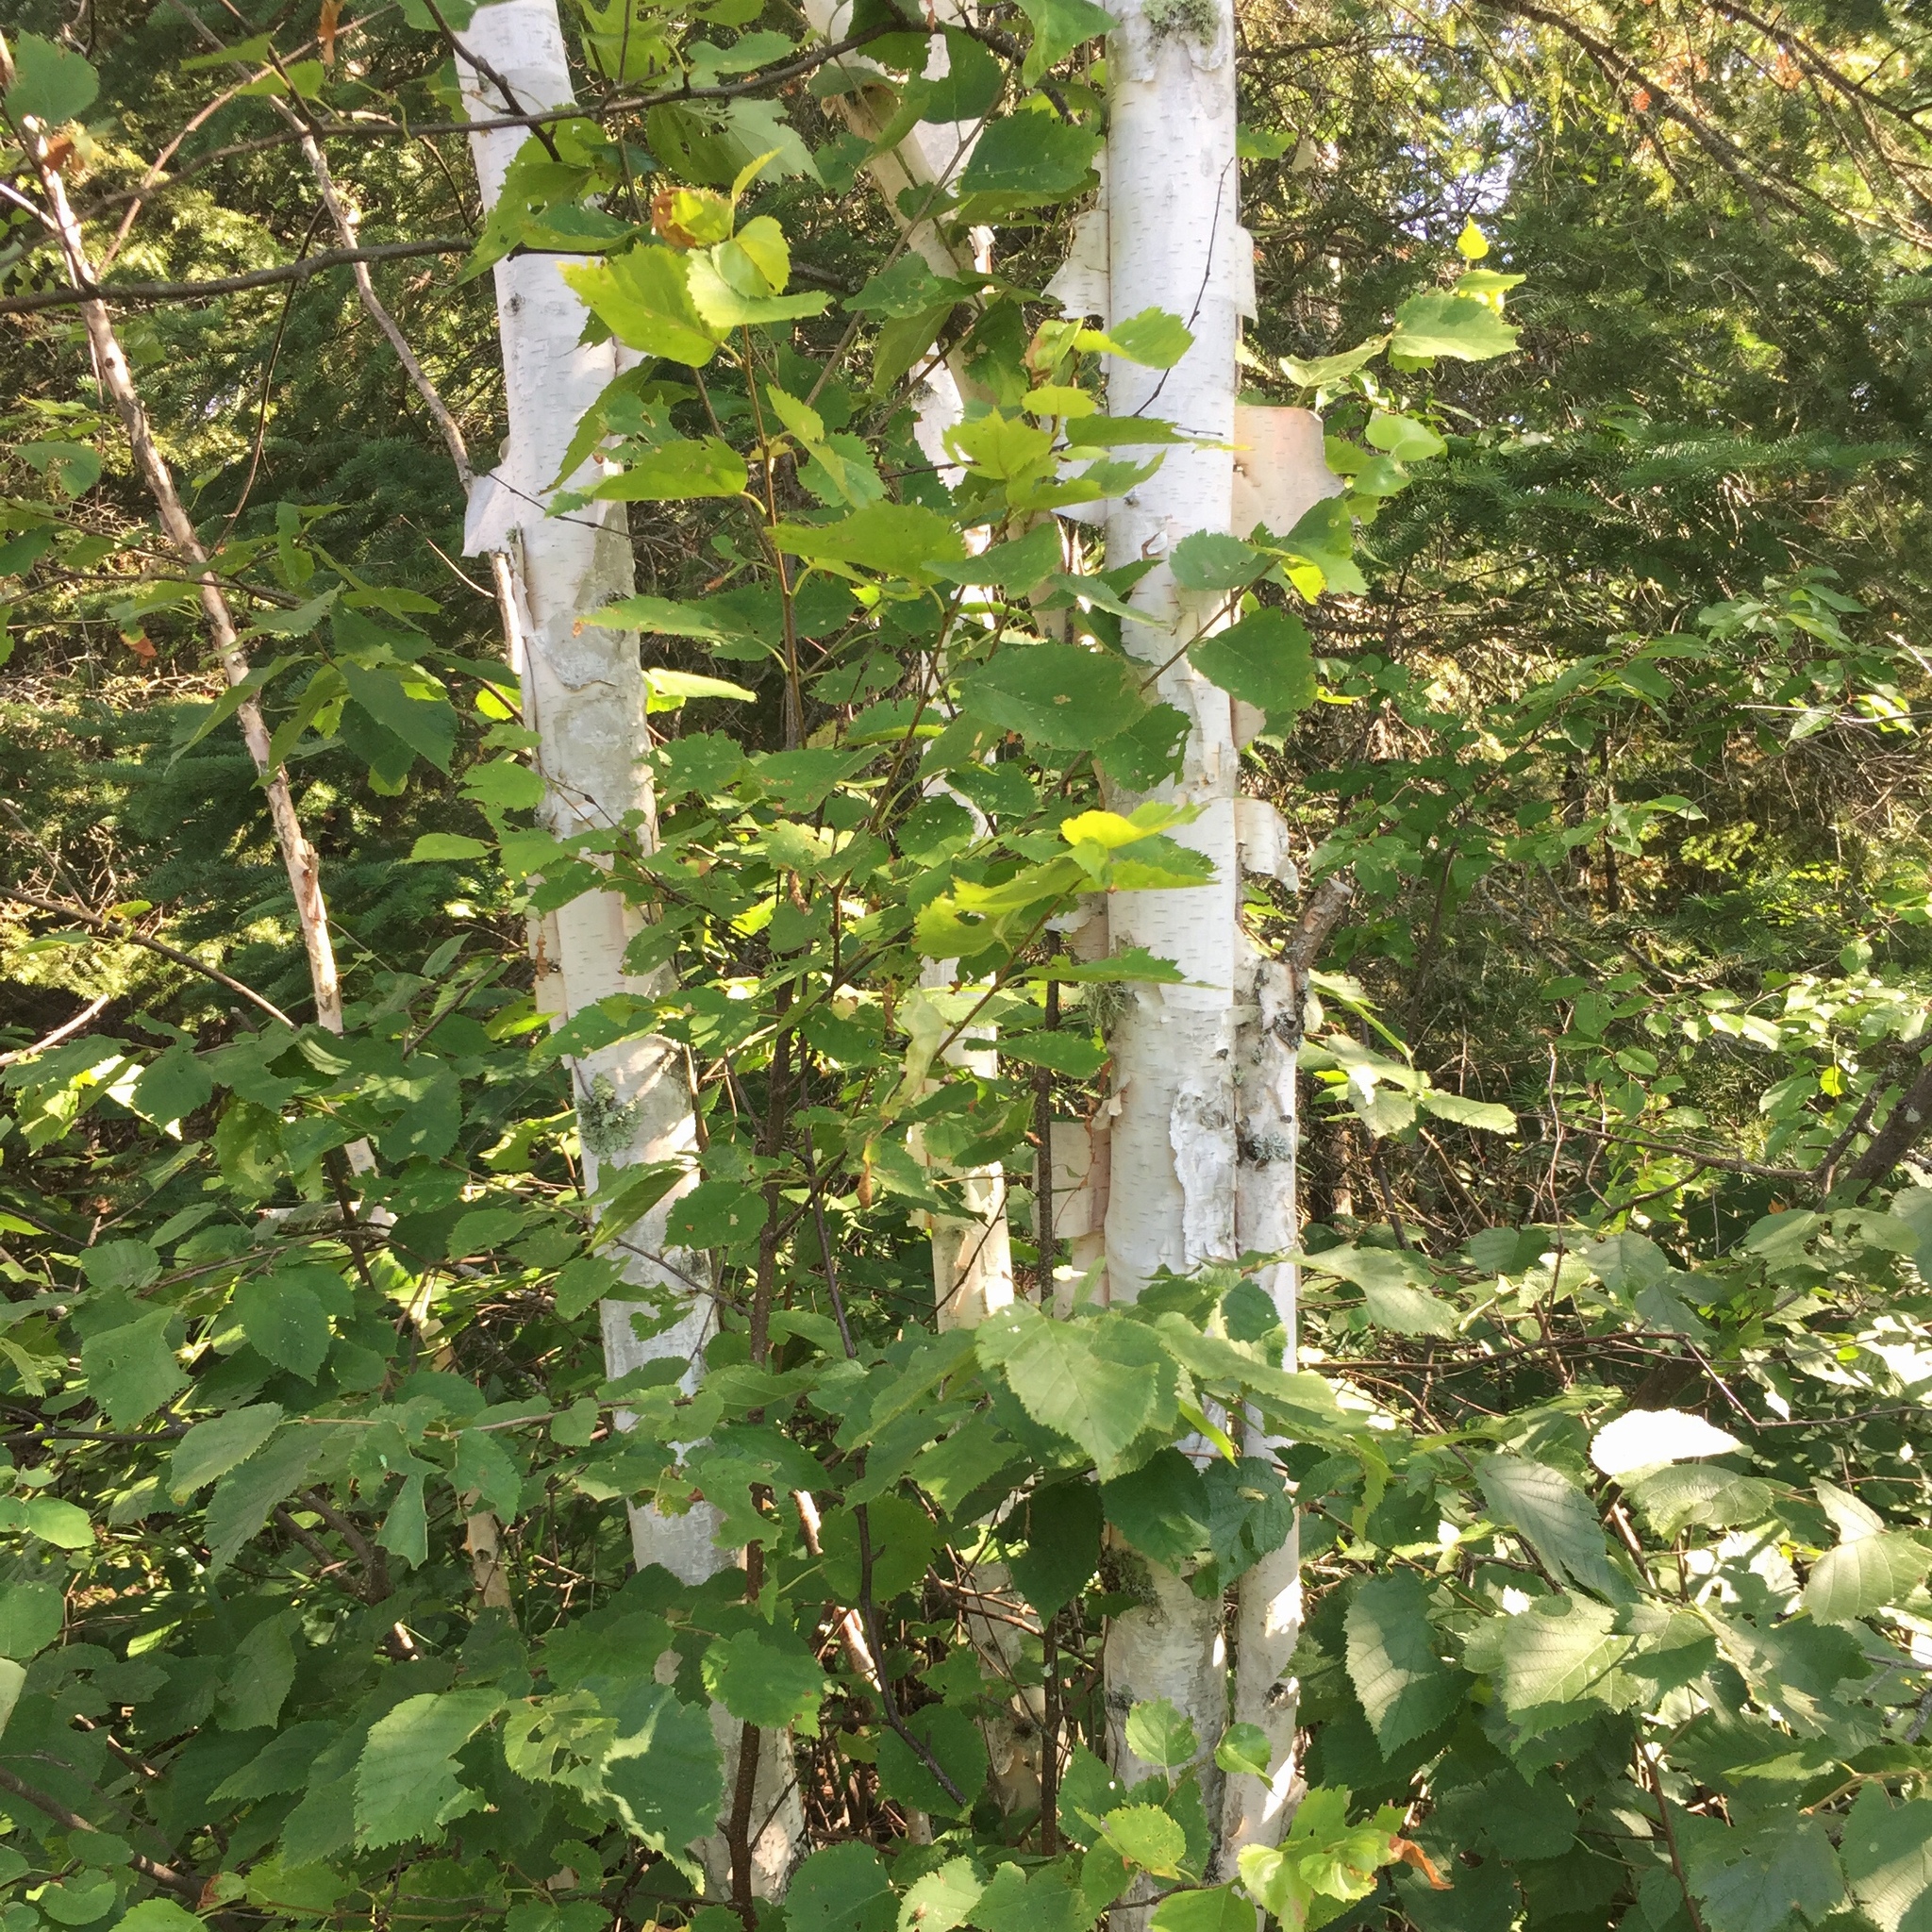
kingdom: Plantae
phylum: Tracheophyta
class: Magnoliopsida
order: Fagales
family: Betulaceae
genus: Betula
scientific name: Betula papyrifera
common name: Paper birch
